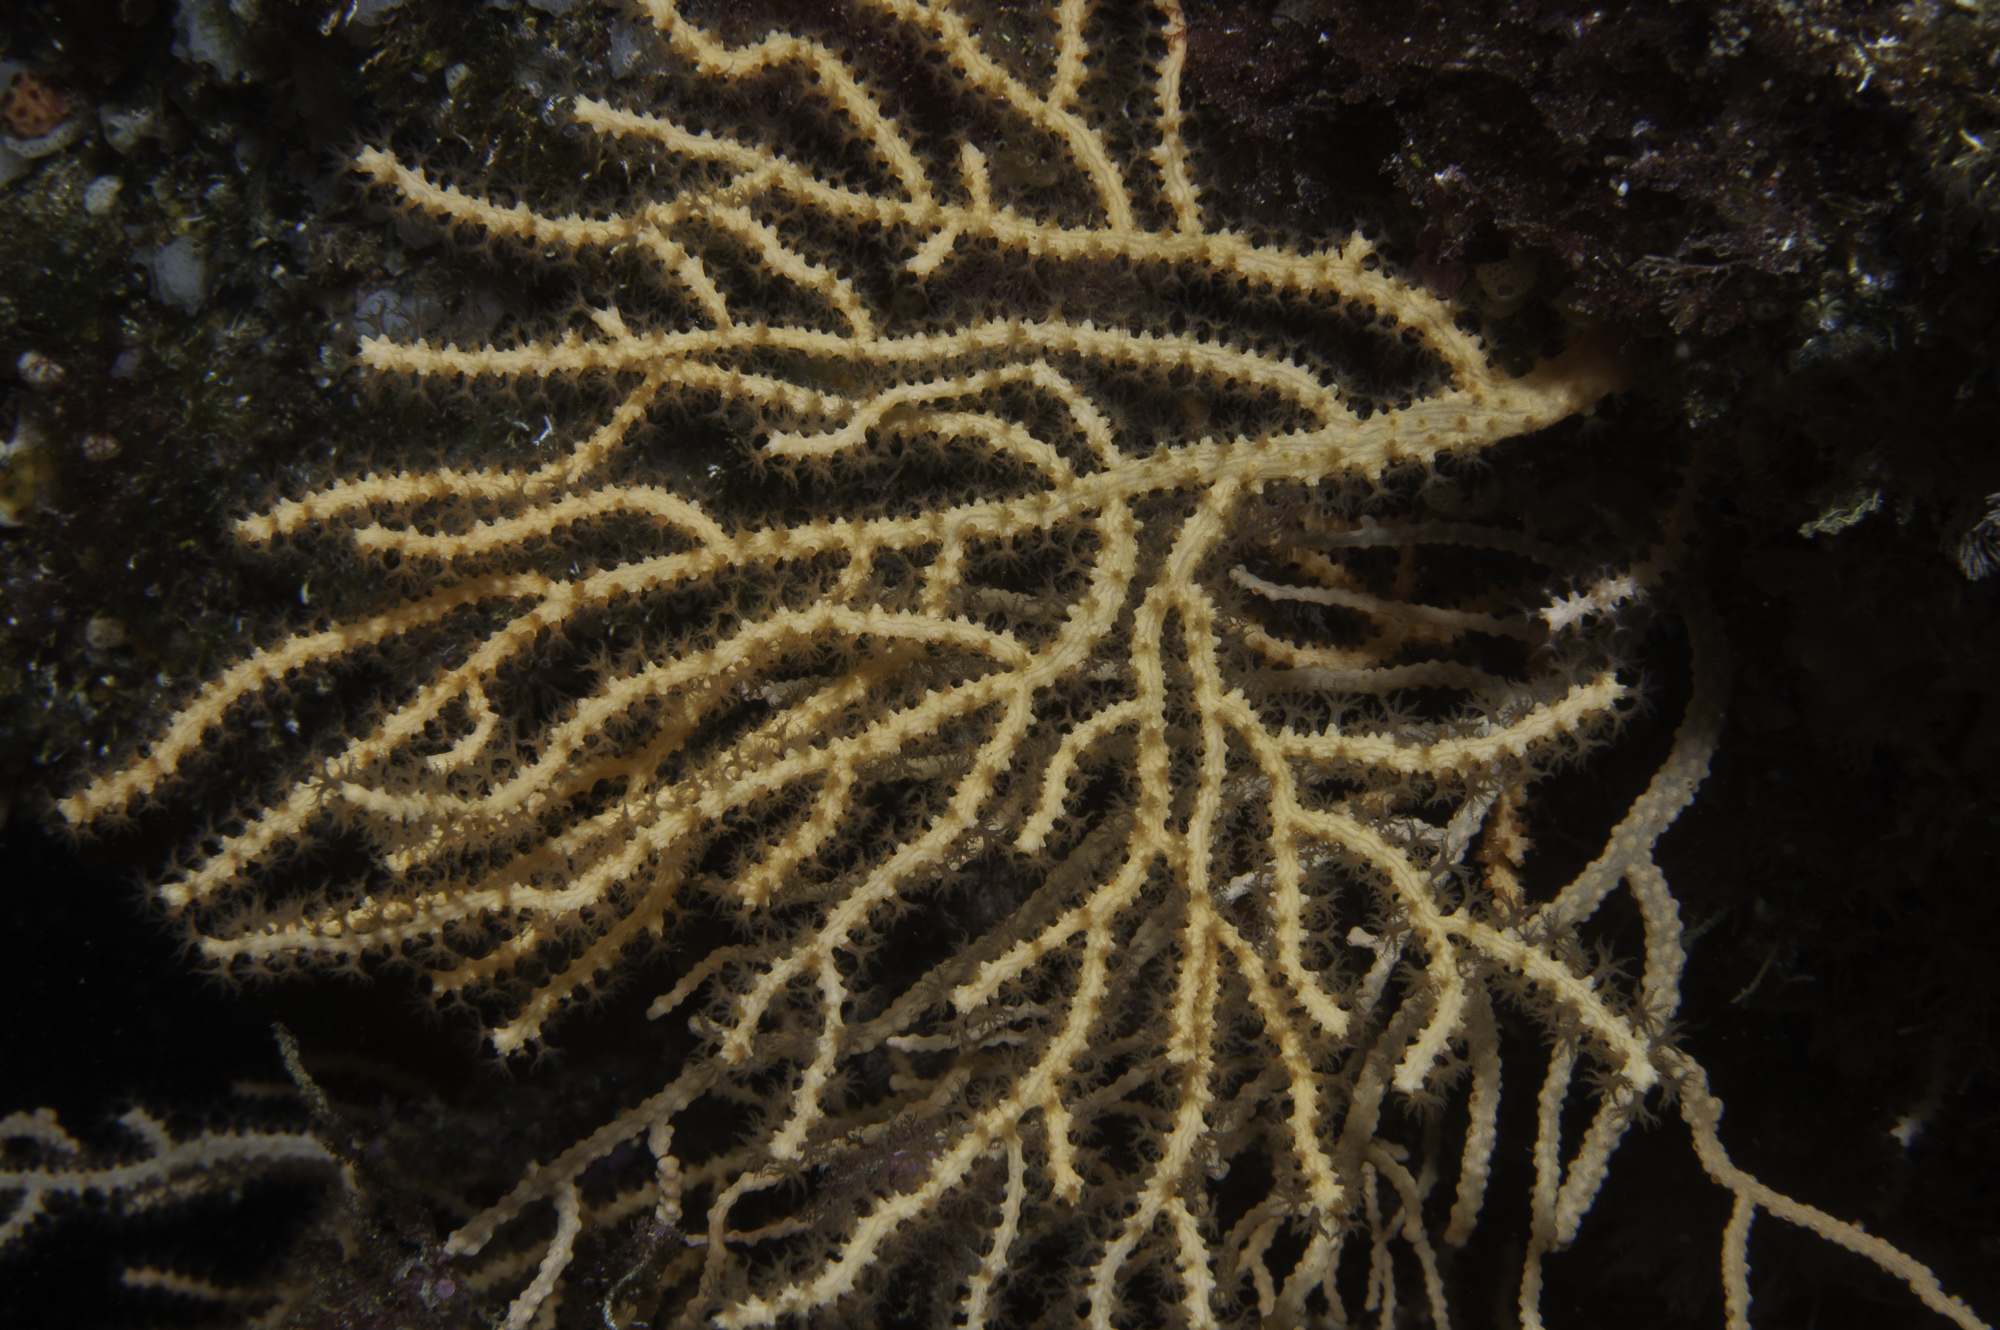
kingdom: Animalia
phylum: Cnidaria
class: Anthozoa
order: Malacalcyonacea
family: Eunicellidae
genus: Eunicella
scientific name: Eunicella verrucosa
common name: Pink sea-fan
